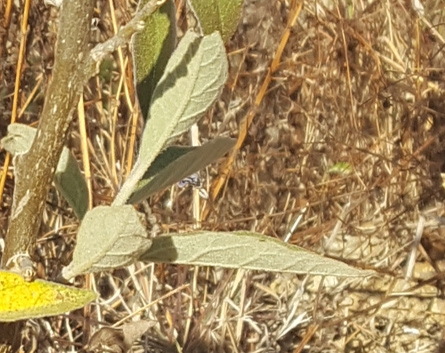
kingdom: Plantae
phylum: Tracheophyta
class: Magnoliopsida
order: Solanales
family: Solanaceae
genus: Solanum
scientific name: Solanum lanceolatum
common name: Orangeberry nightshade
